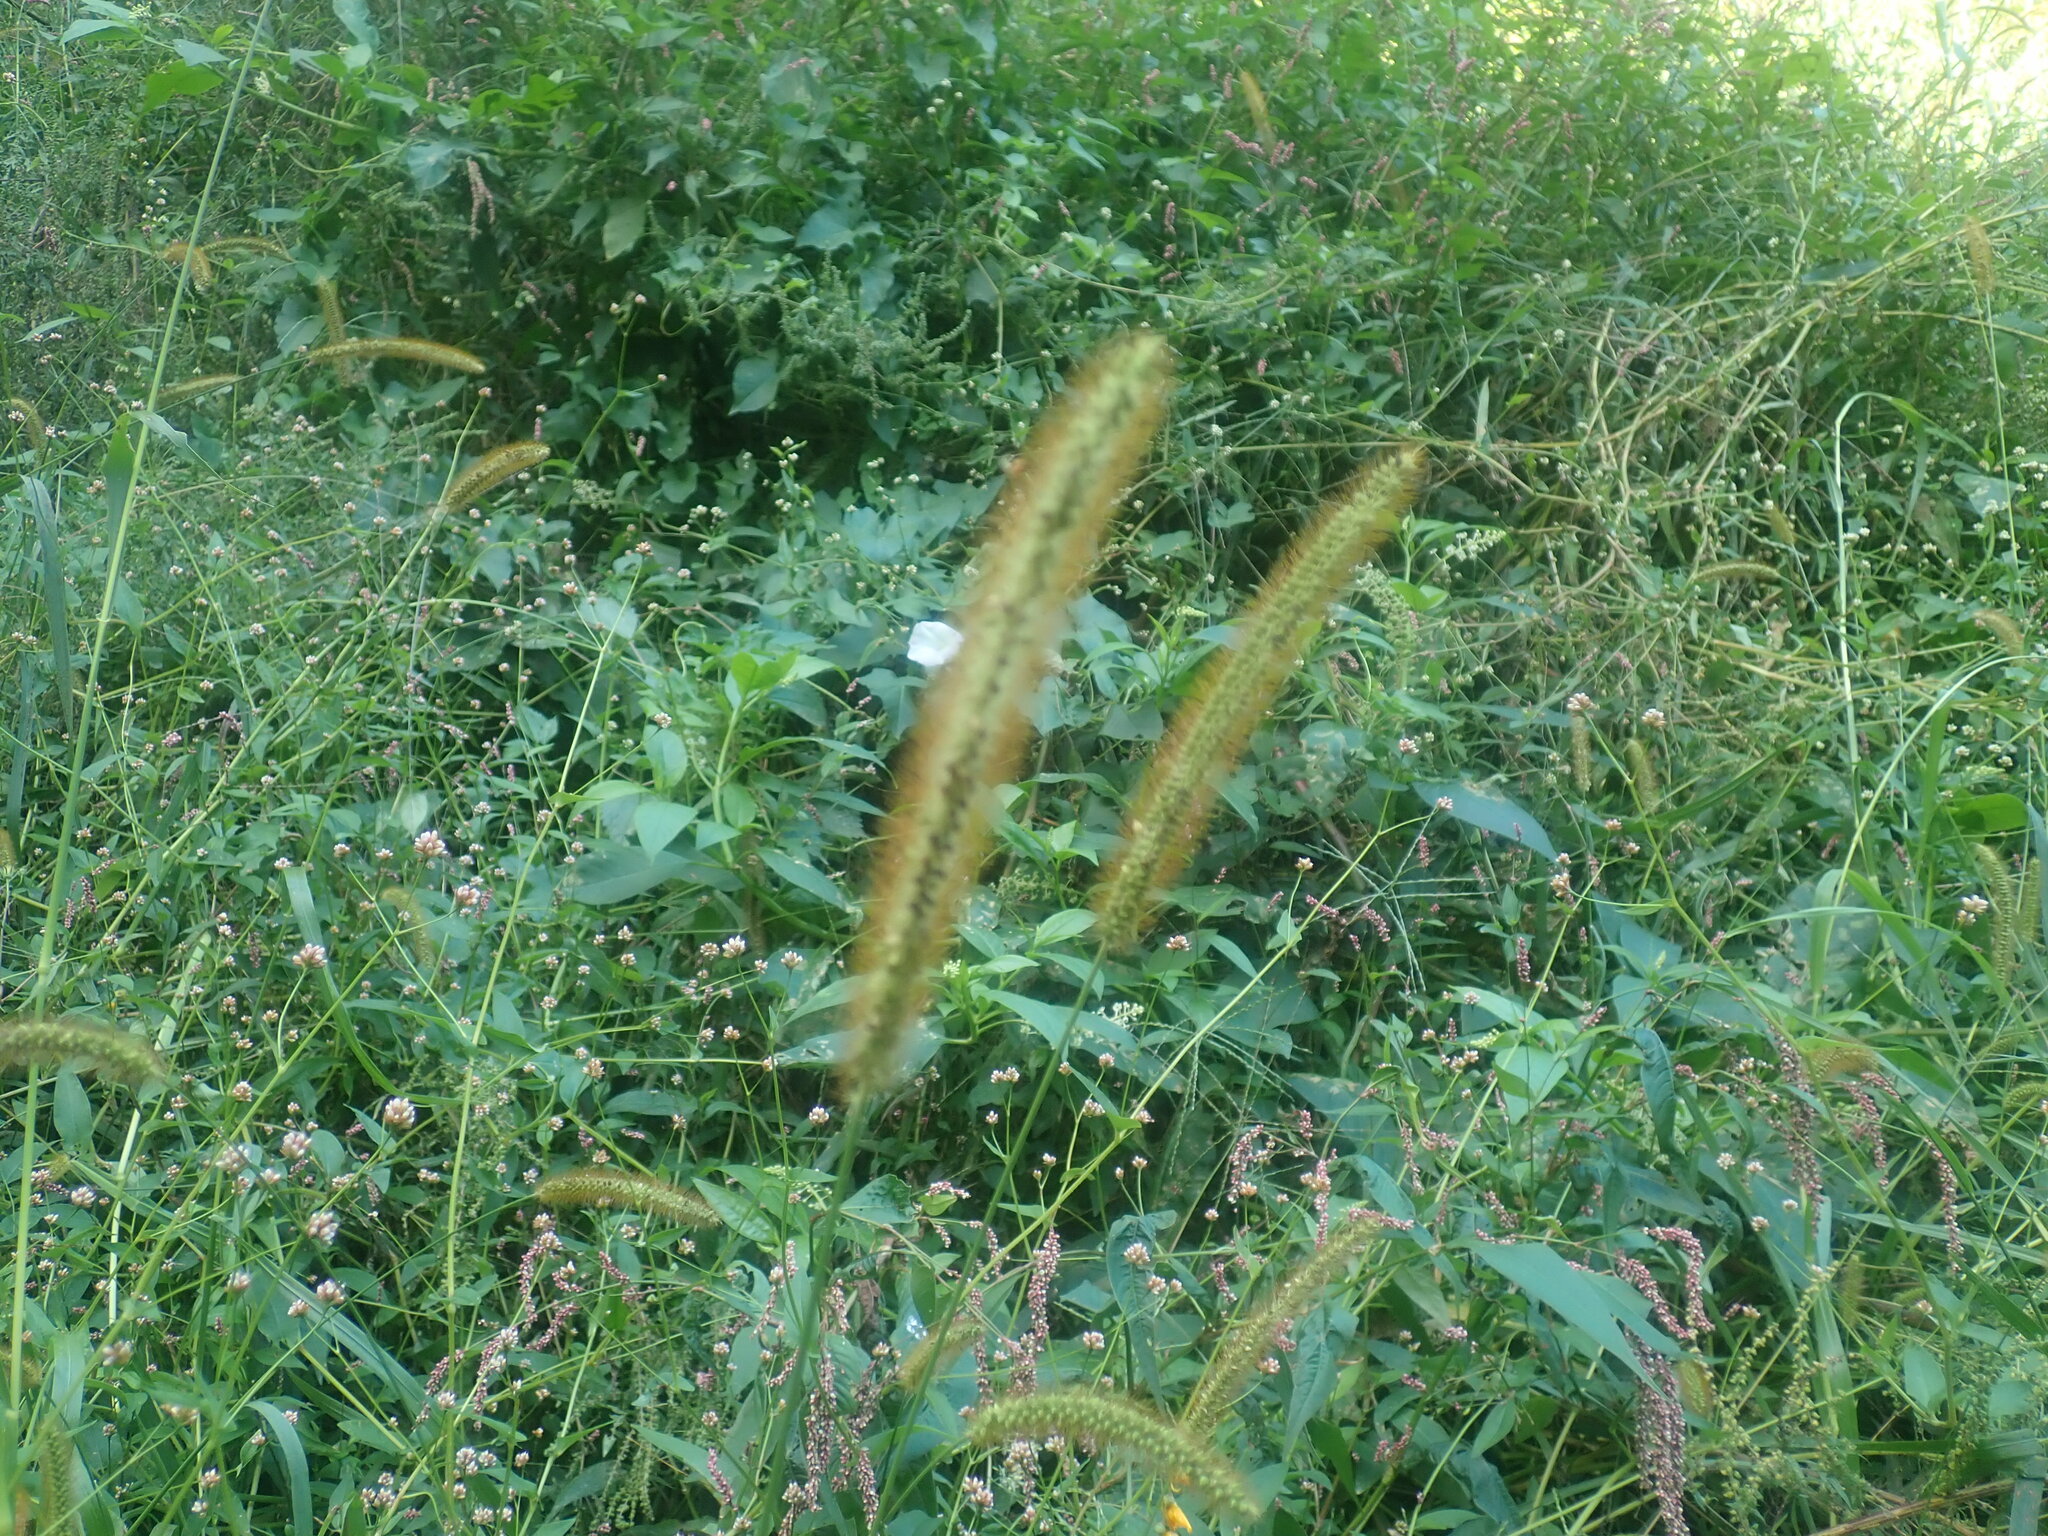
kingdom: Plantae
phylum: Tracheophyta
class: Liliopsida
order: Poales
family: Poaceae
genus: Setaria
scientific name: Setaria pumila
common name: Yellow bristle-grass
